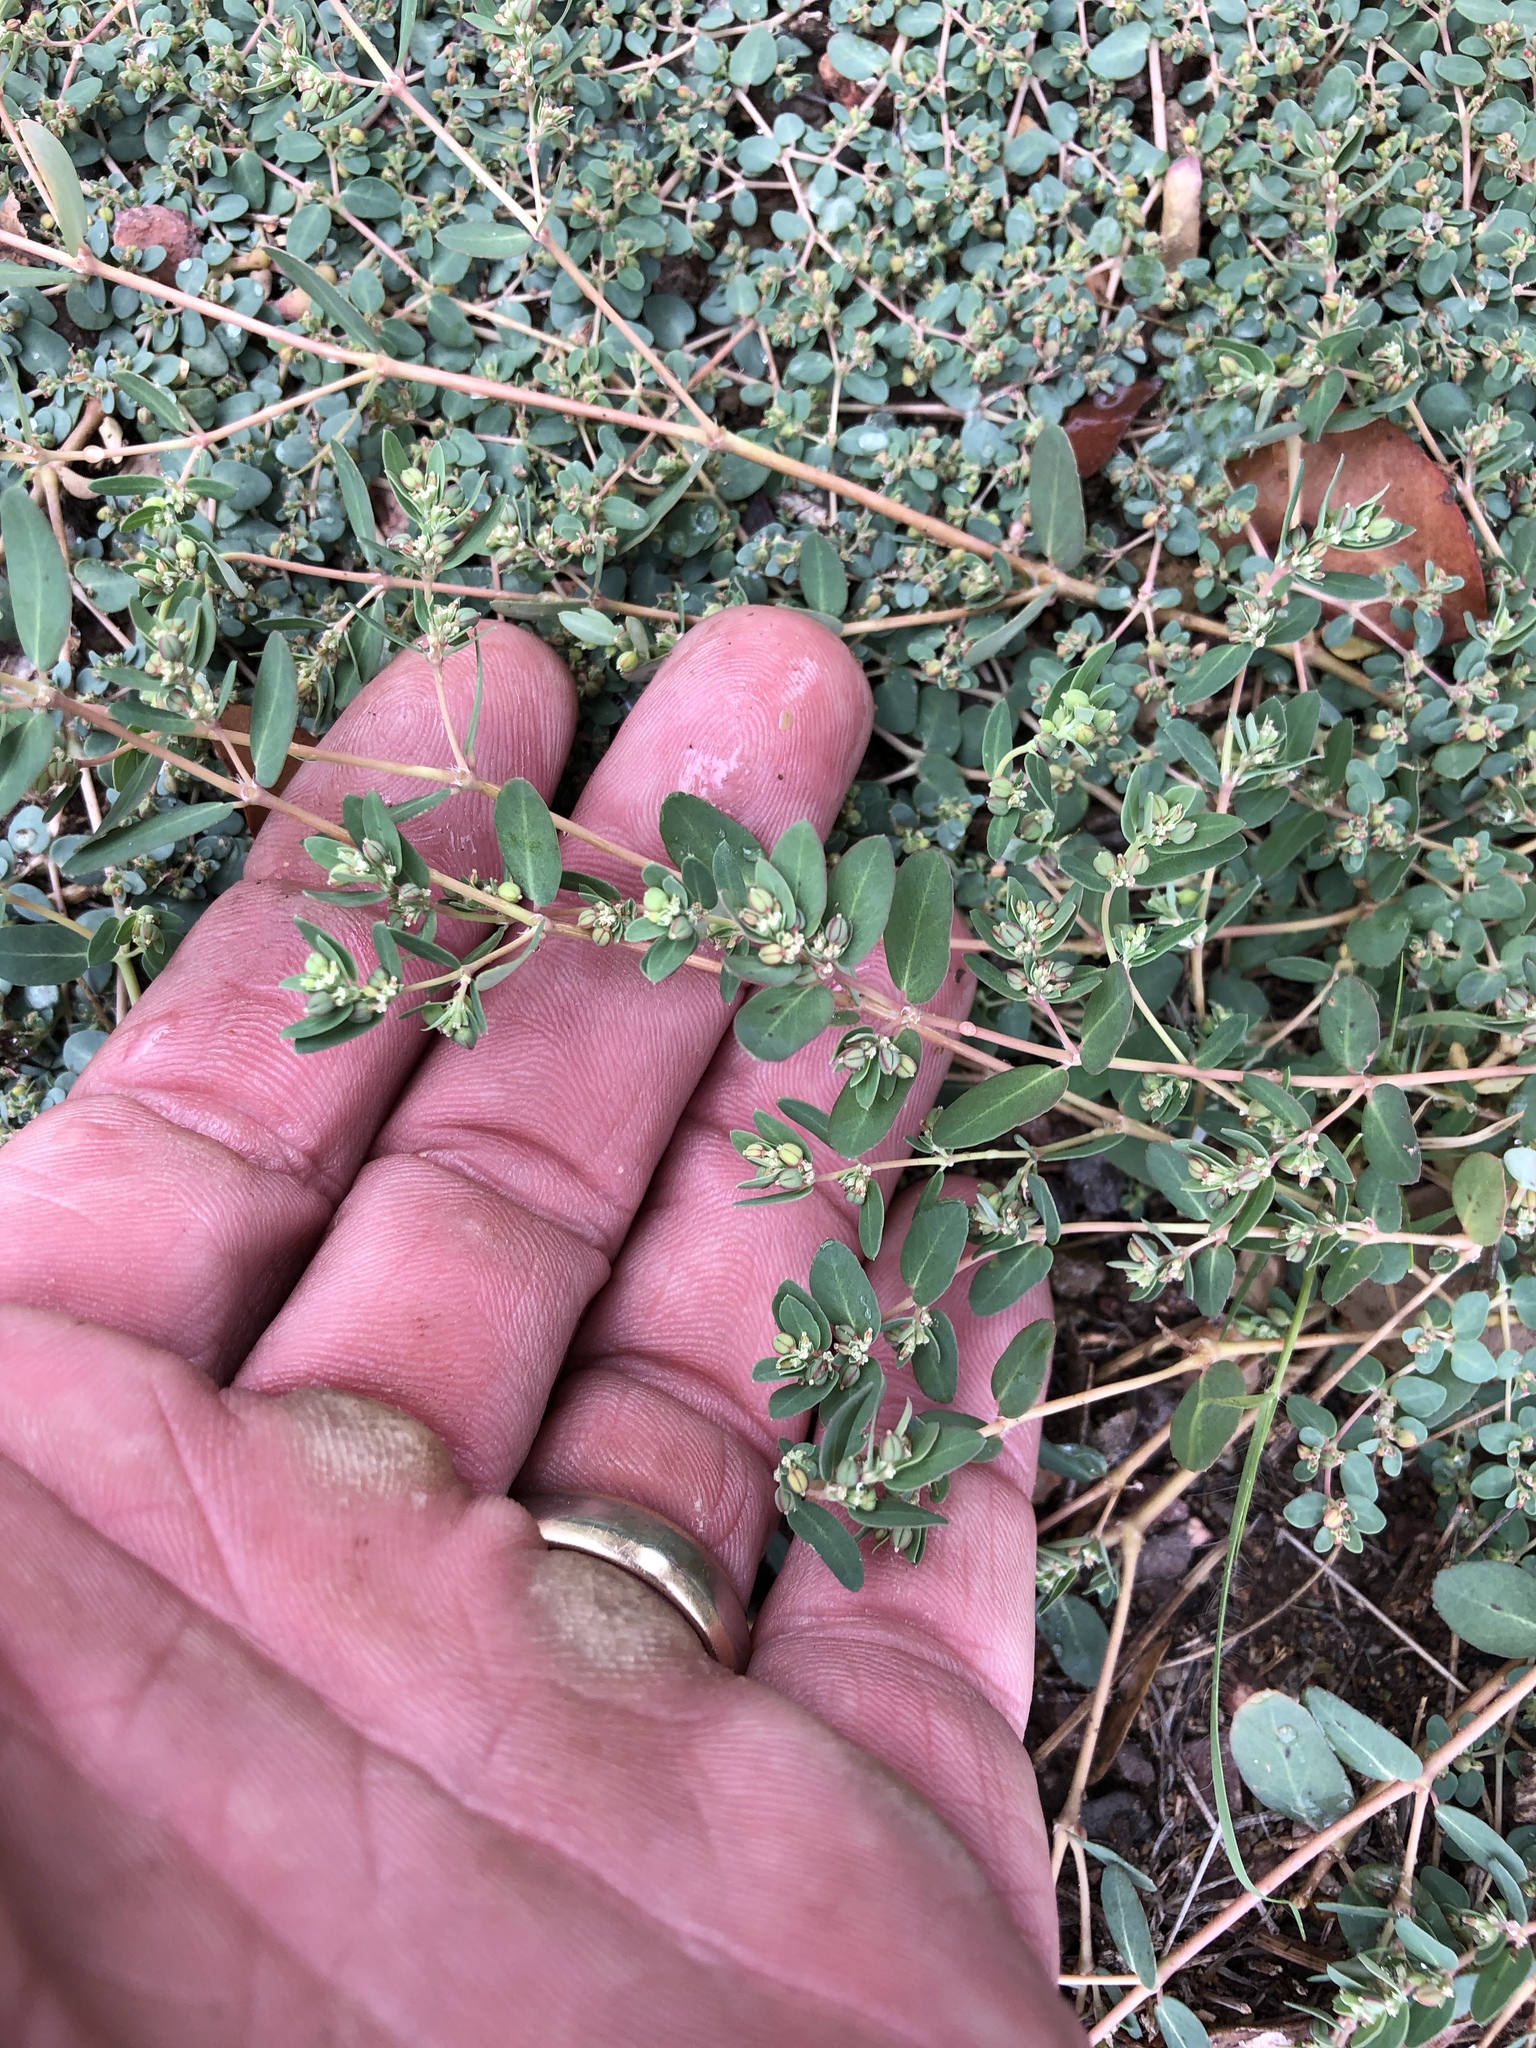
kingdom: Plantae
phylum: Tracheophyta
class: Magnoliopsida
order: Malpighiales
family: Euphorbiaceae
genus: Euphorbia
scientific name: Euphorbia abramsiana
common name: Abram's spurge
